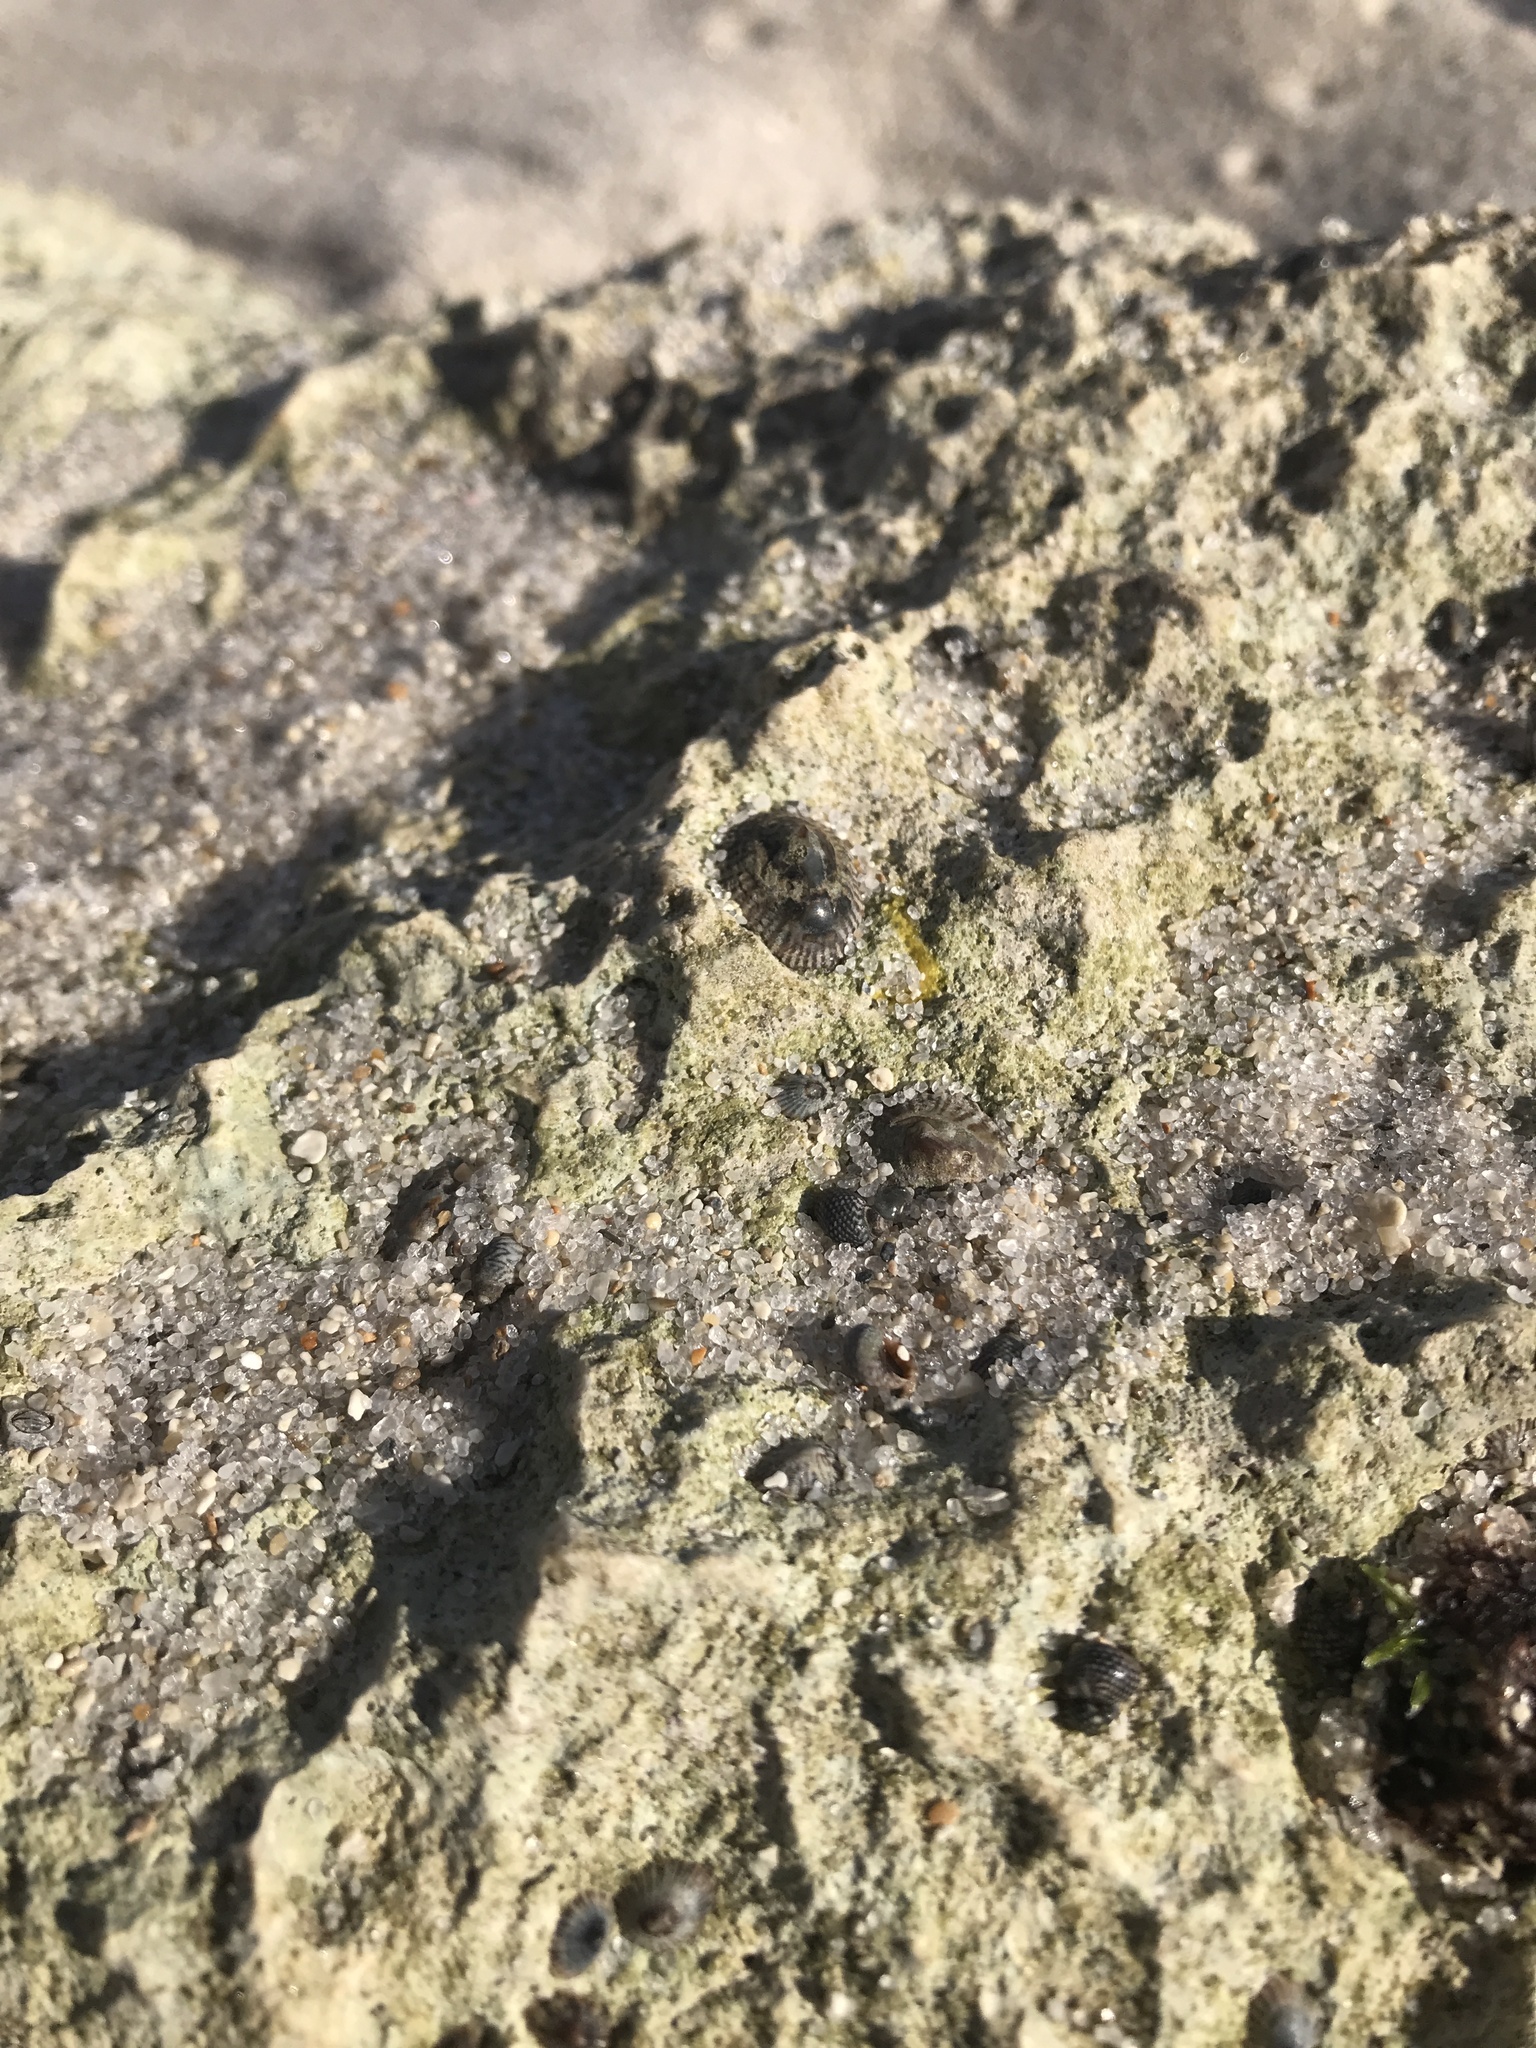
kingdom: Animalia
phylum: Mollusca
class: Gastropoda
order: Siphonariida
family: Siphonariidae
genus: Siphonaria
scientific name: Siphonaria naufragum
